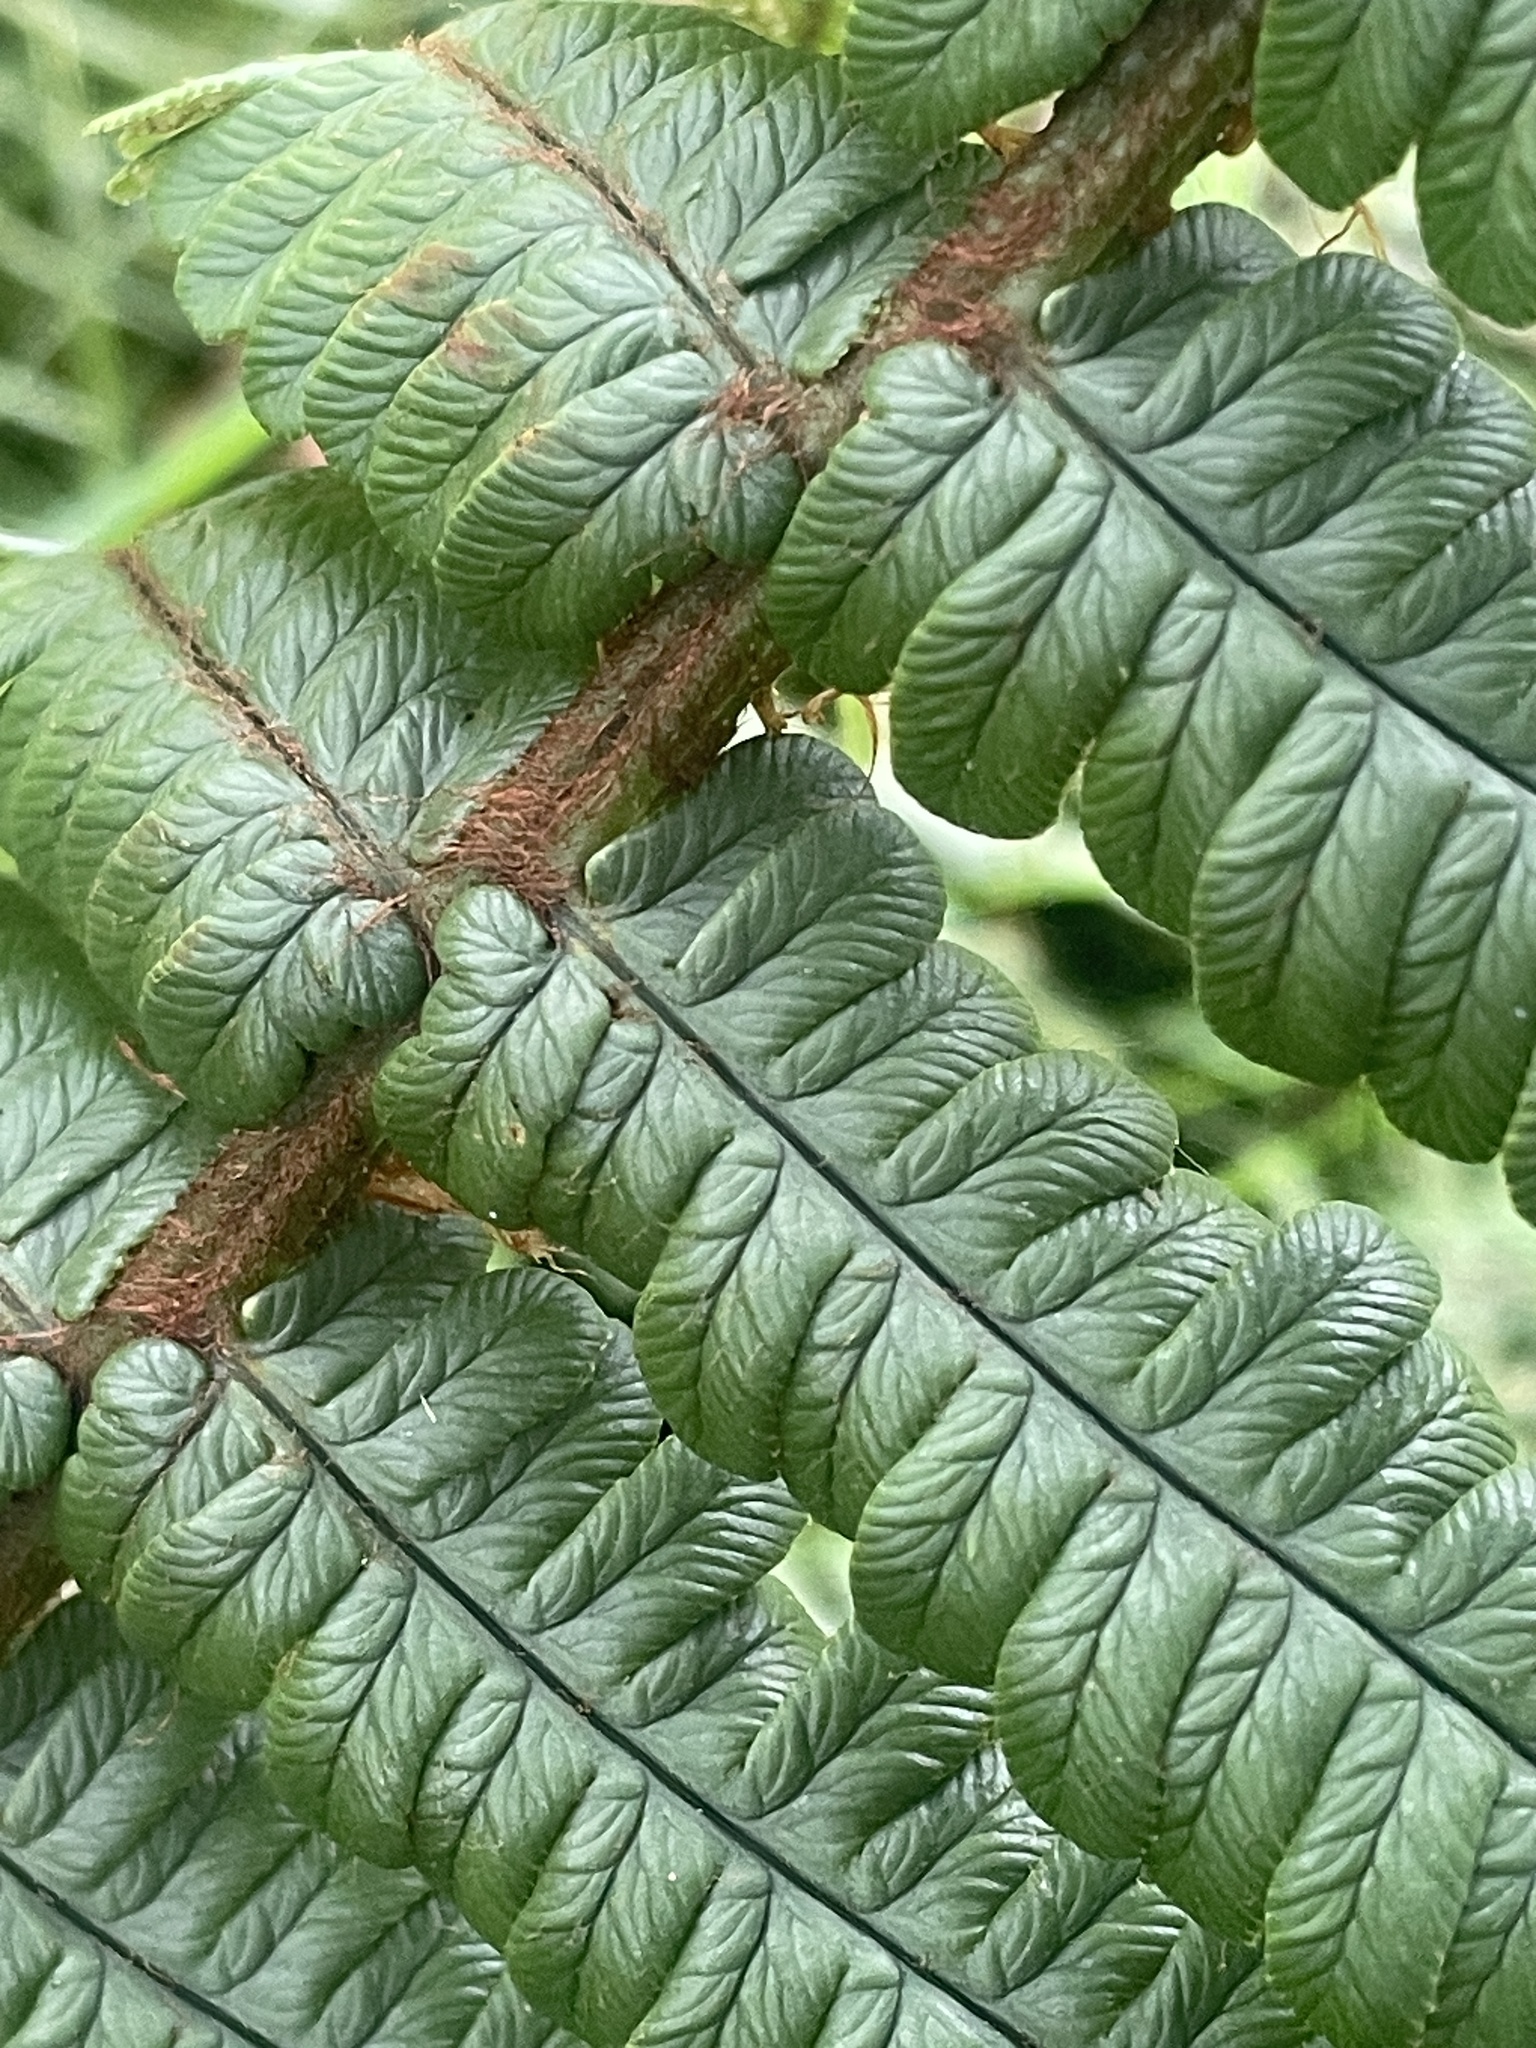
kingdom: Plantae
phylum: Tracheophyta
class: Polypodiopsida
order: Polypodiales
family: Dryopteridaceae
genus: Dryopteris
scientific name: Dryopteris wallichiana
